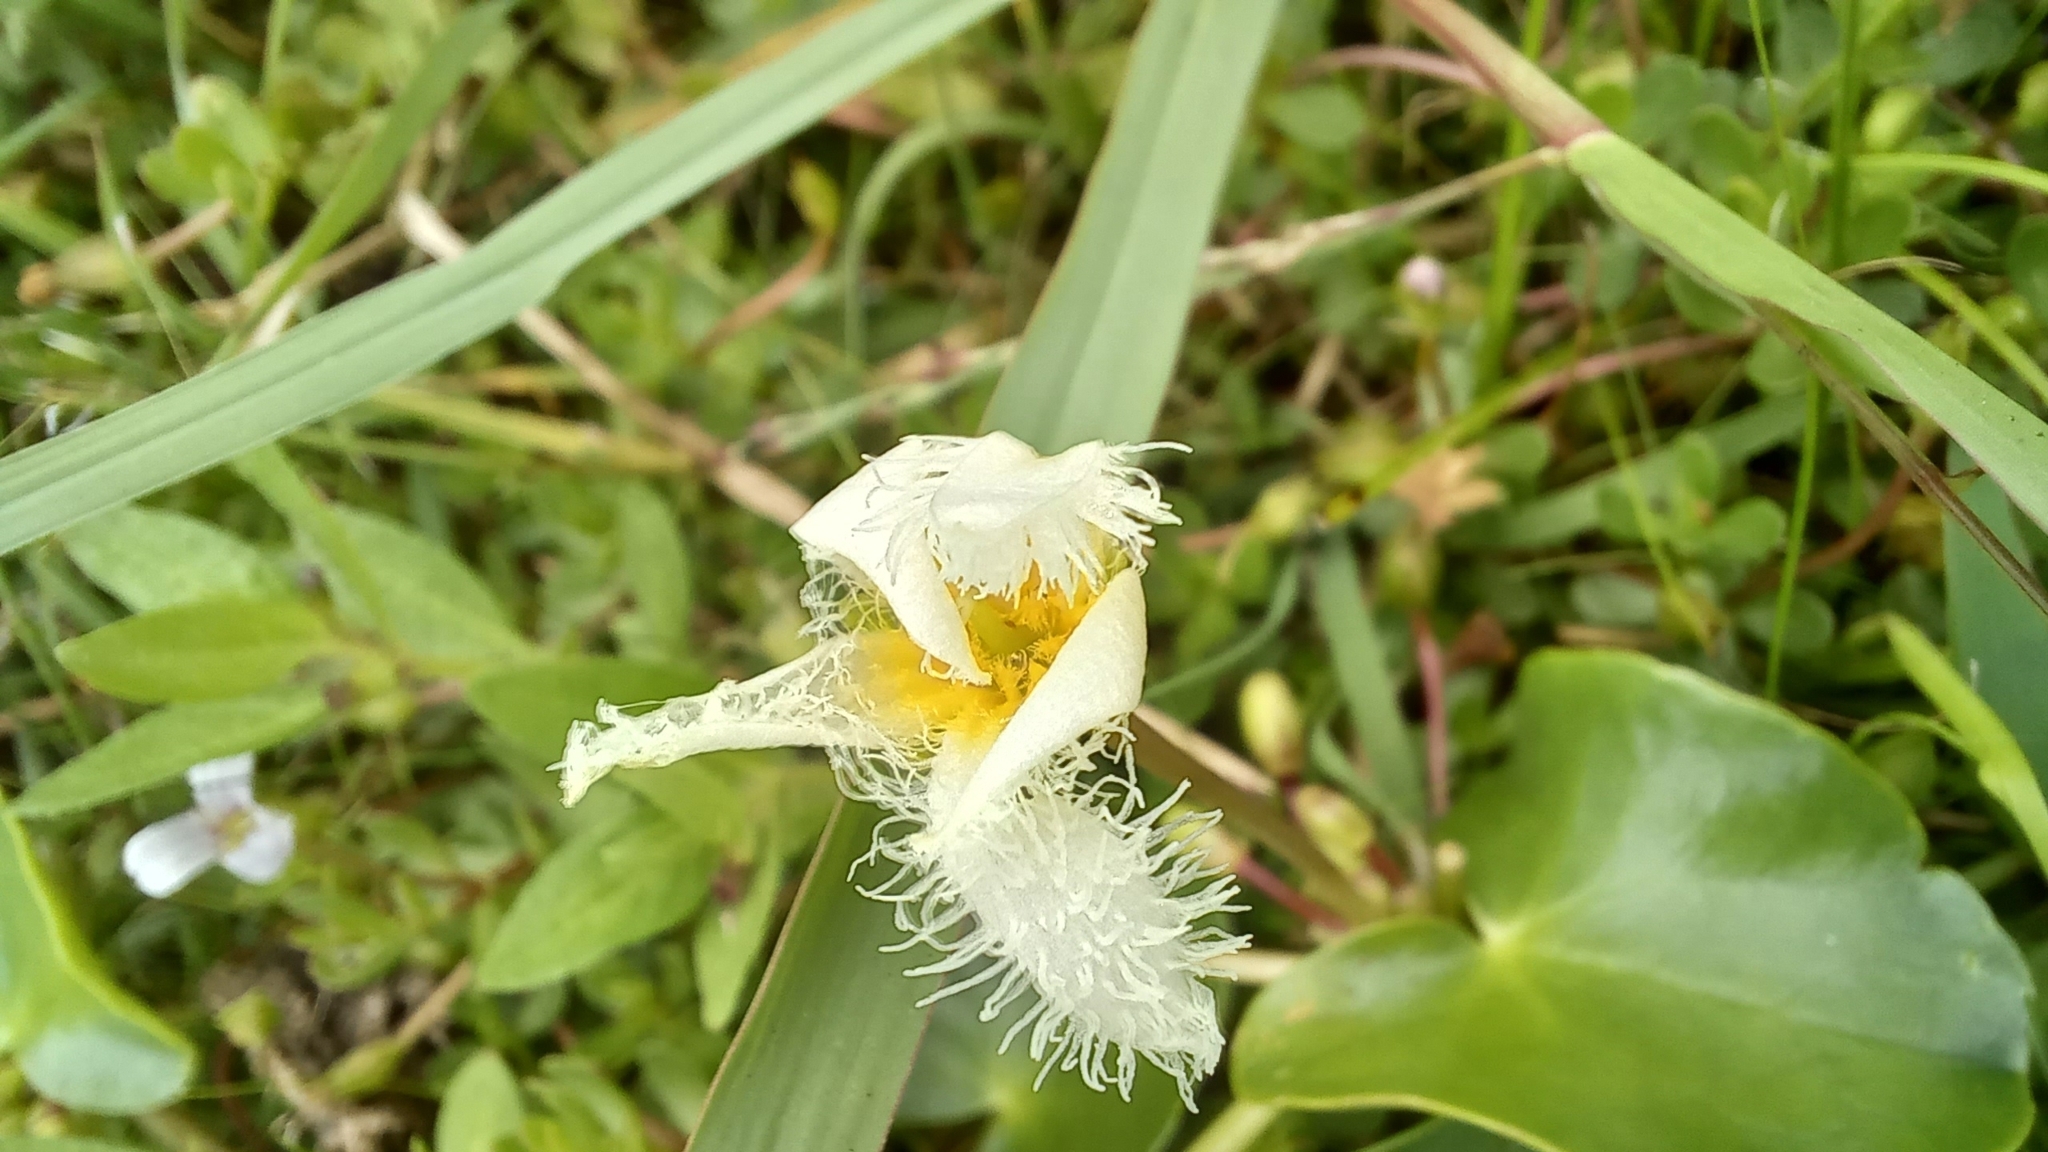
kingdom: Plantae
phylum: Tracheophyta
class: Magnoliopsida
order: Asterales
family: Menyanthaceae
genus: Nymphoides
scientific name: Nymphoides humboldtiana
